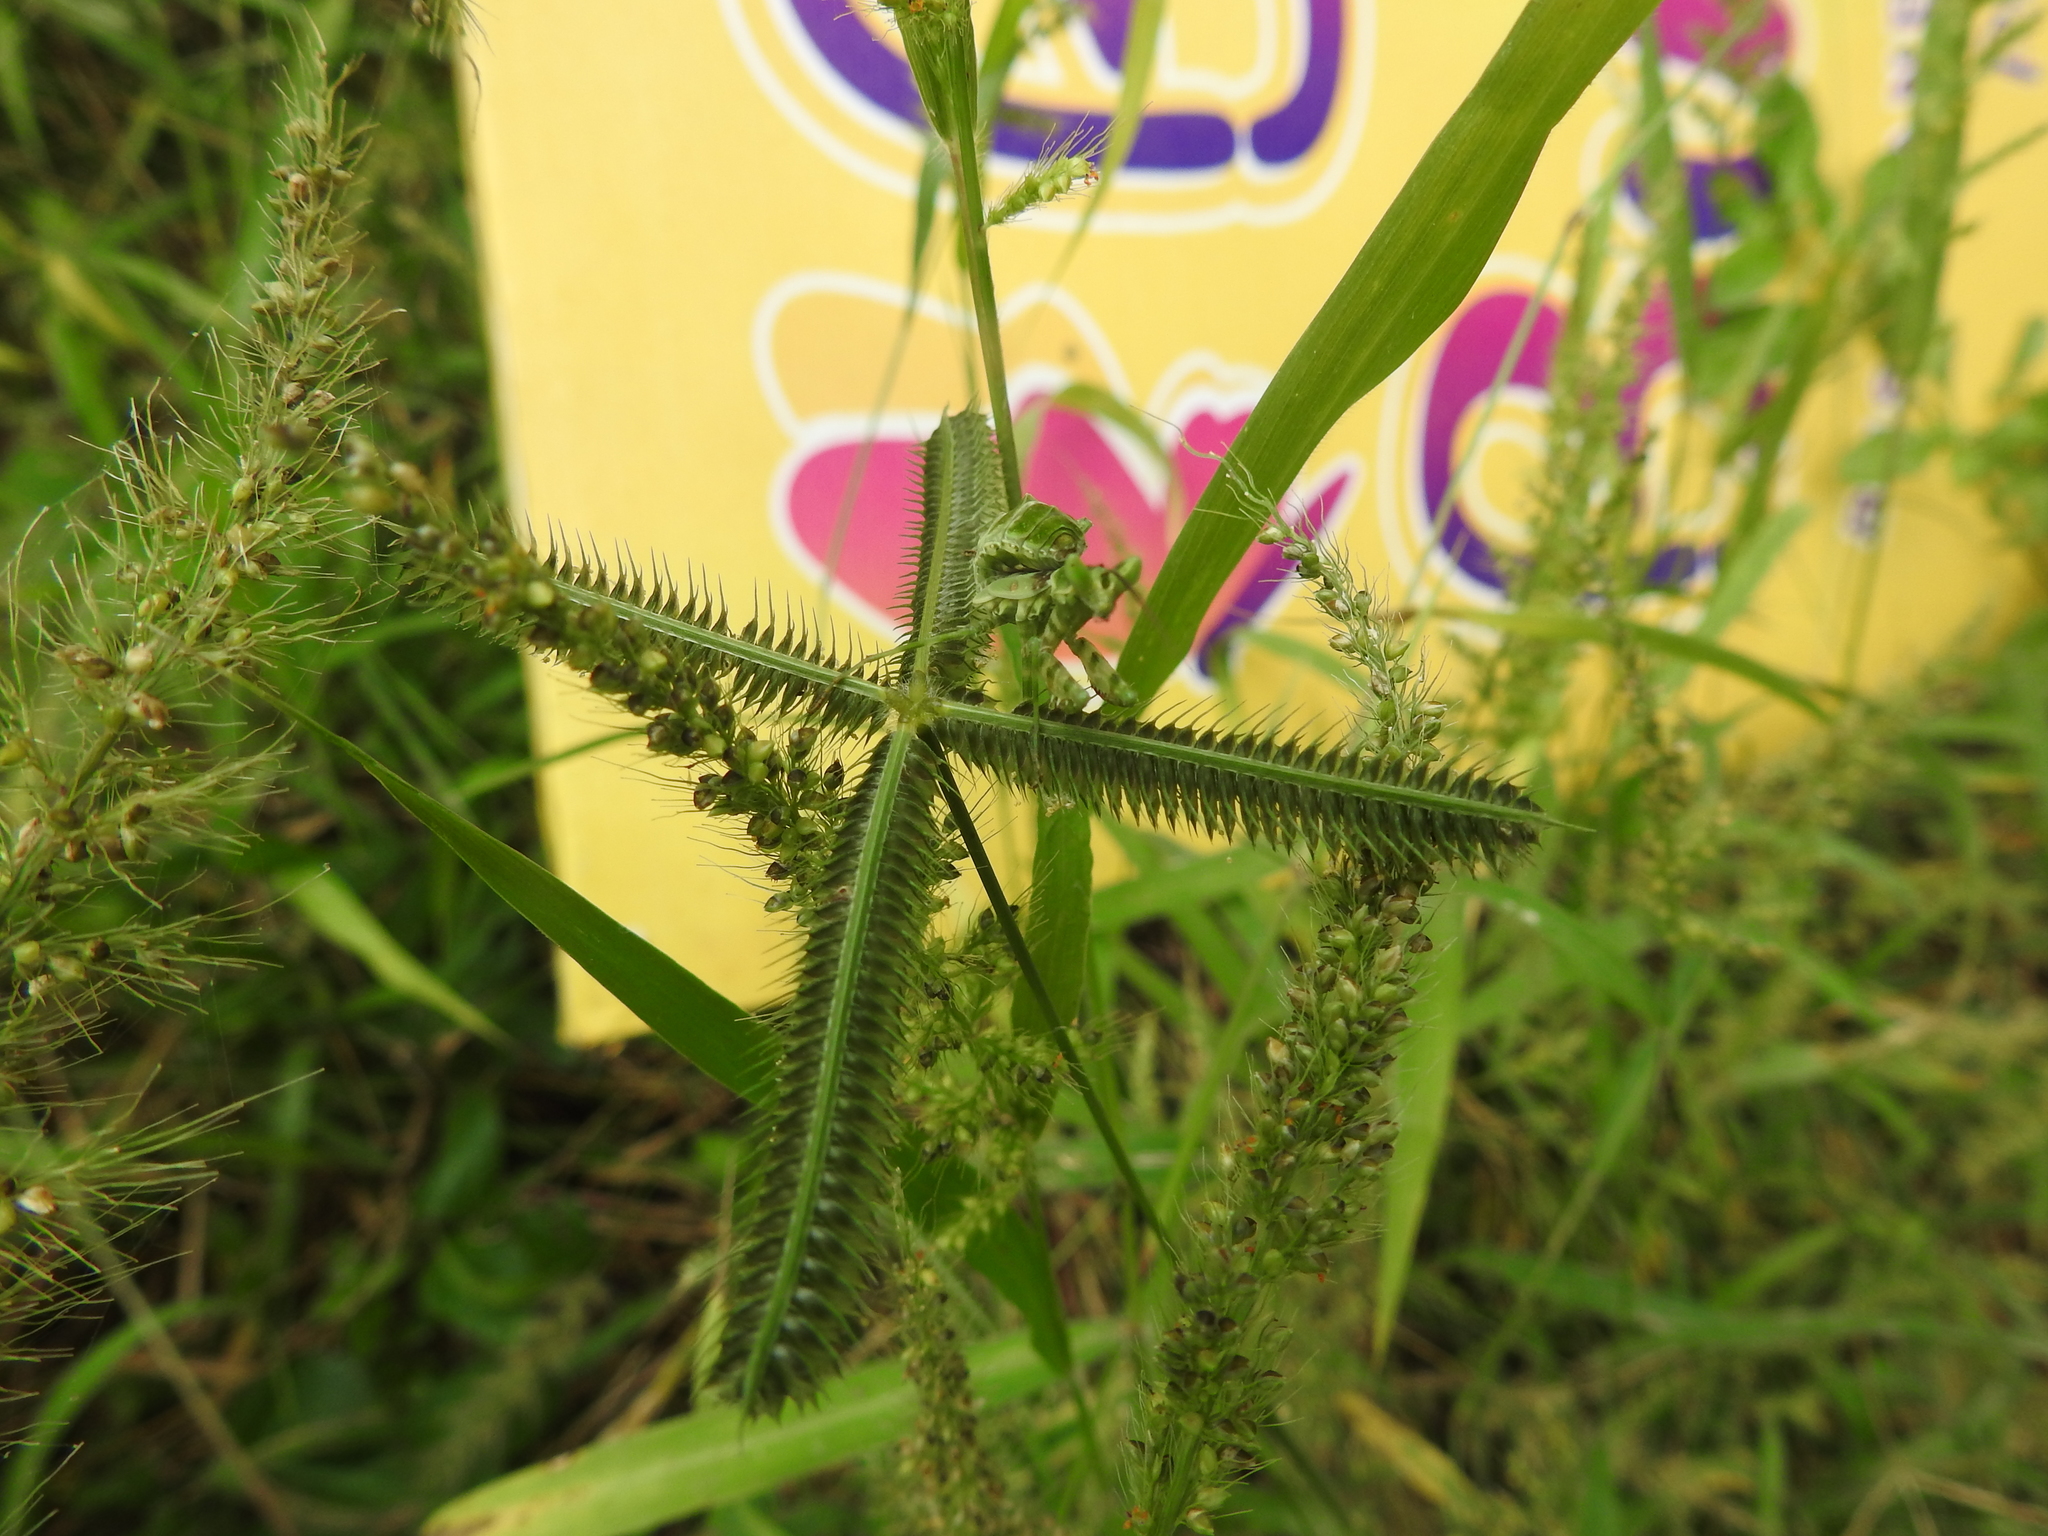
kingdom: Animalia
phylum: Arthropoda
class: Insecta
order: Mantodea
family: Hymenopodidae
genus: Creobroter
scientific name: Creobroter pictipennis
